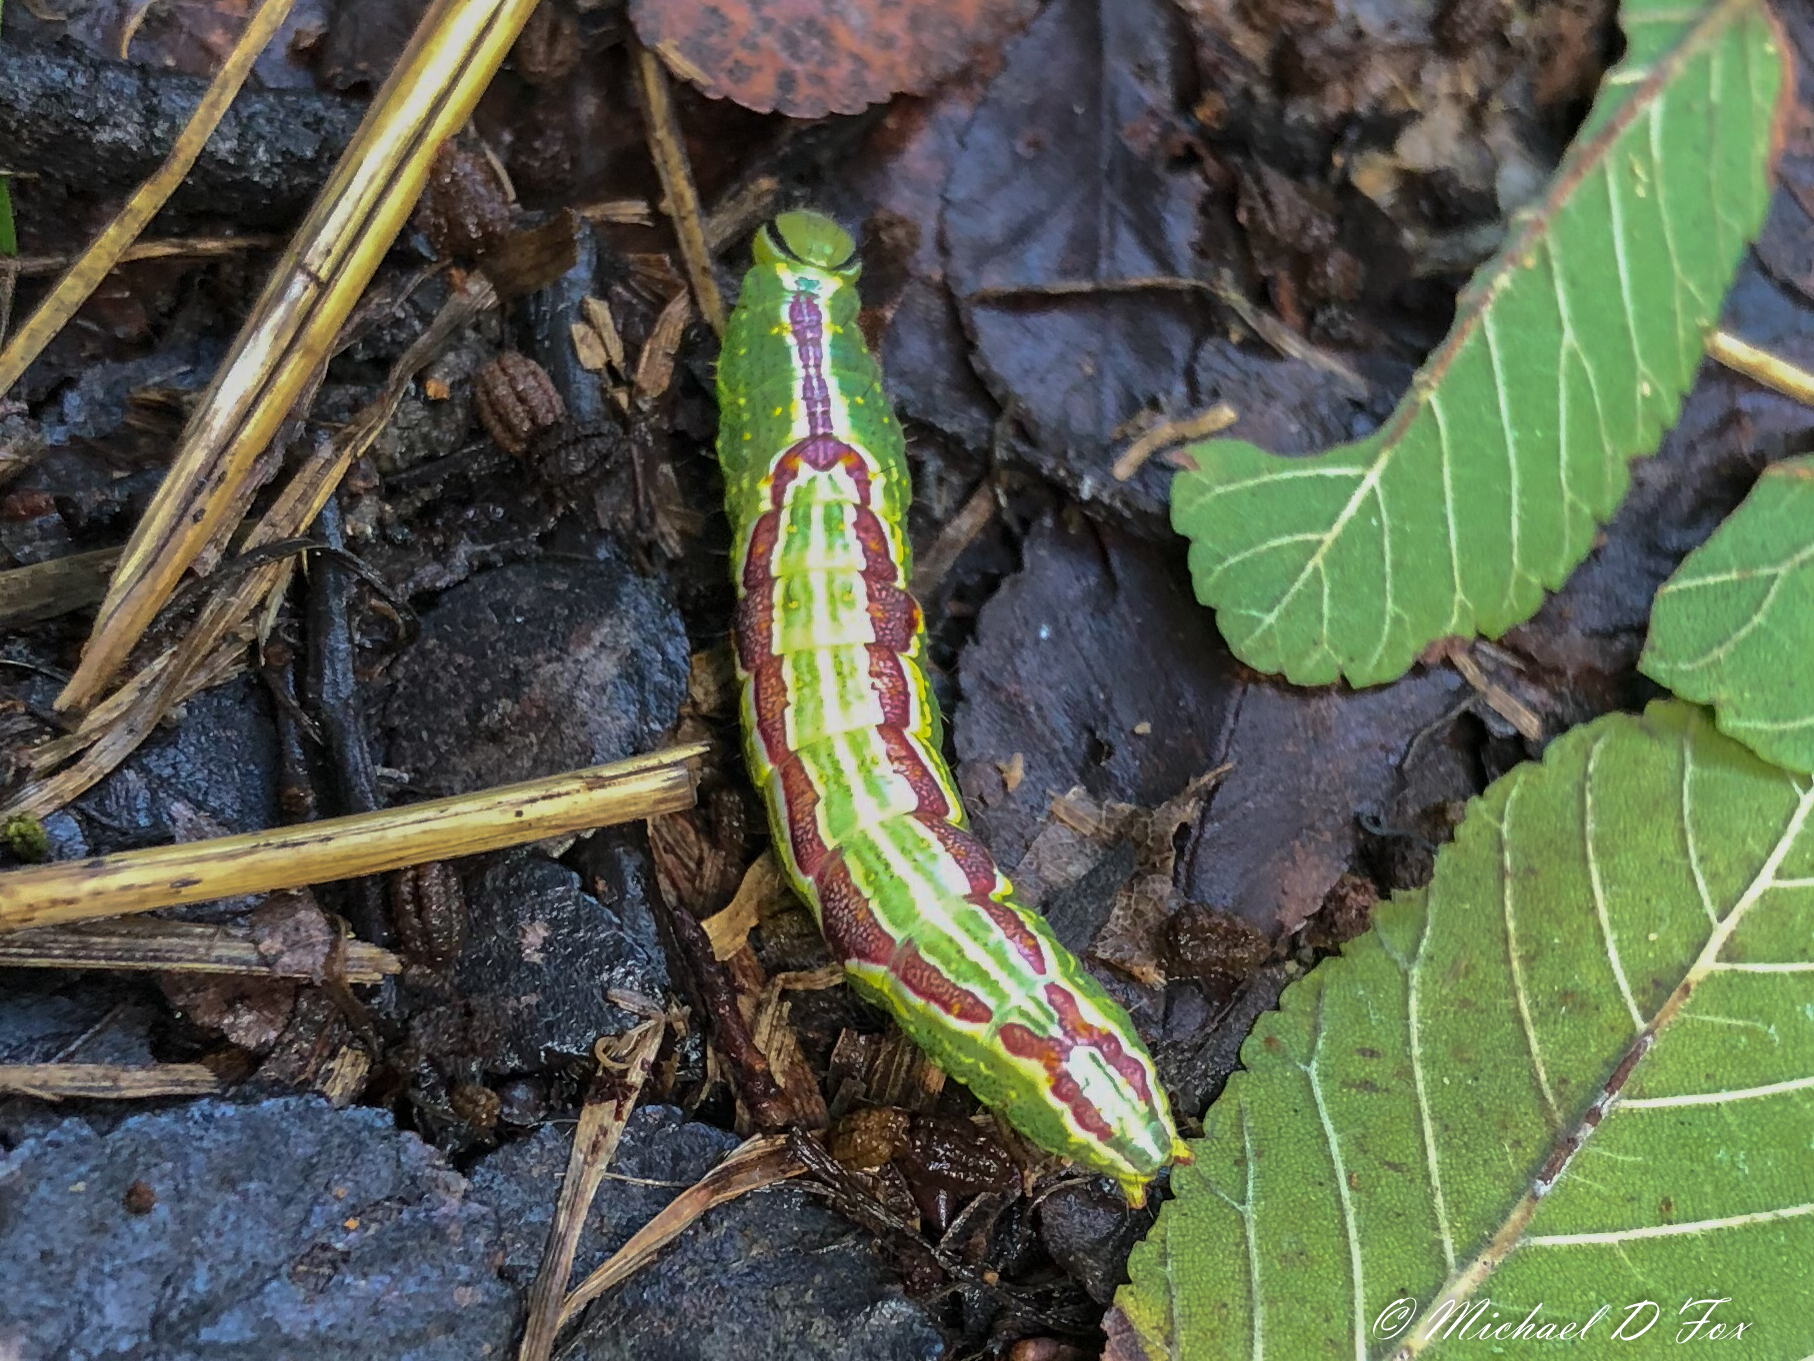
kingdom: Animalia
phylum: Arthropoda
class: Insecta
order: Lepidoptera
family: Notodontidae
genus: Lochmaeus
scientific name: Lochmaeus bilineata
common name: Double-lined prominent
